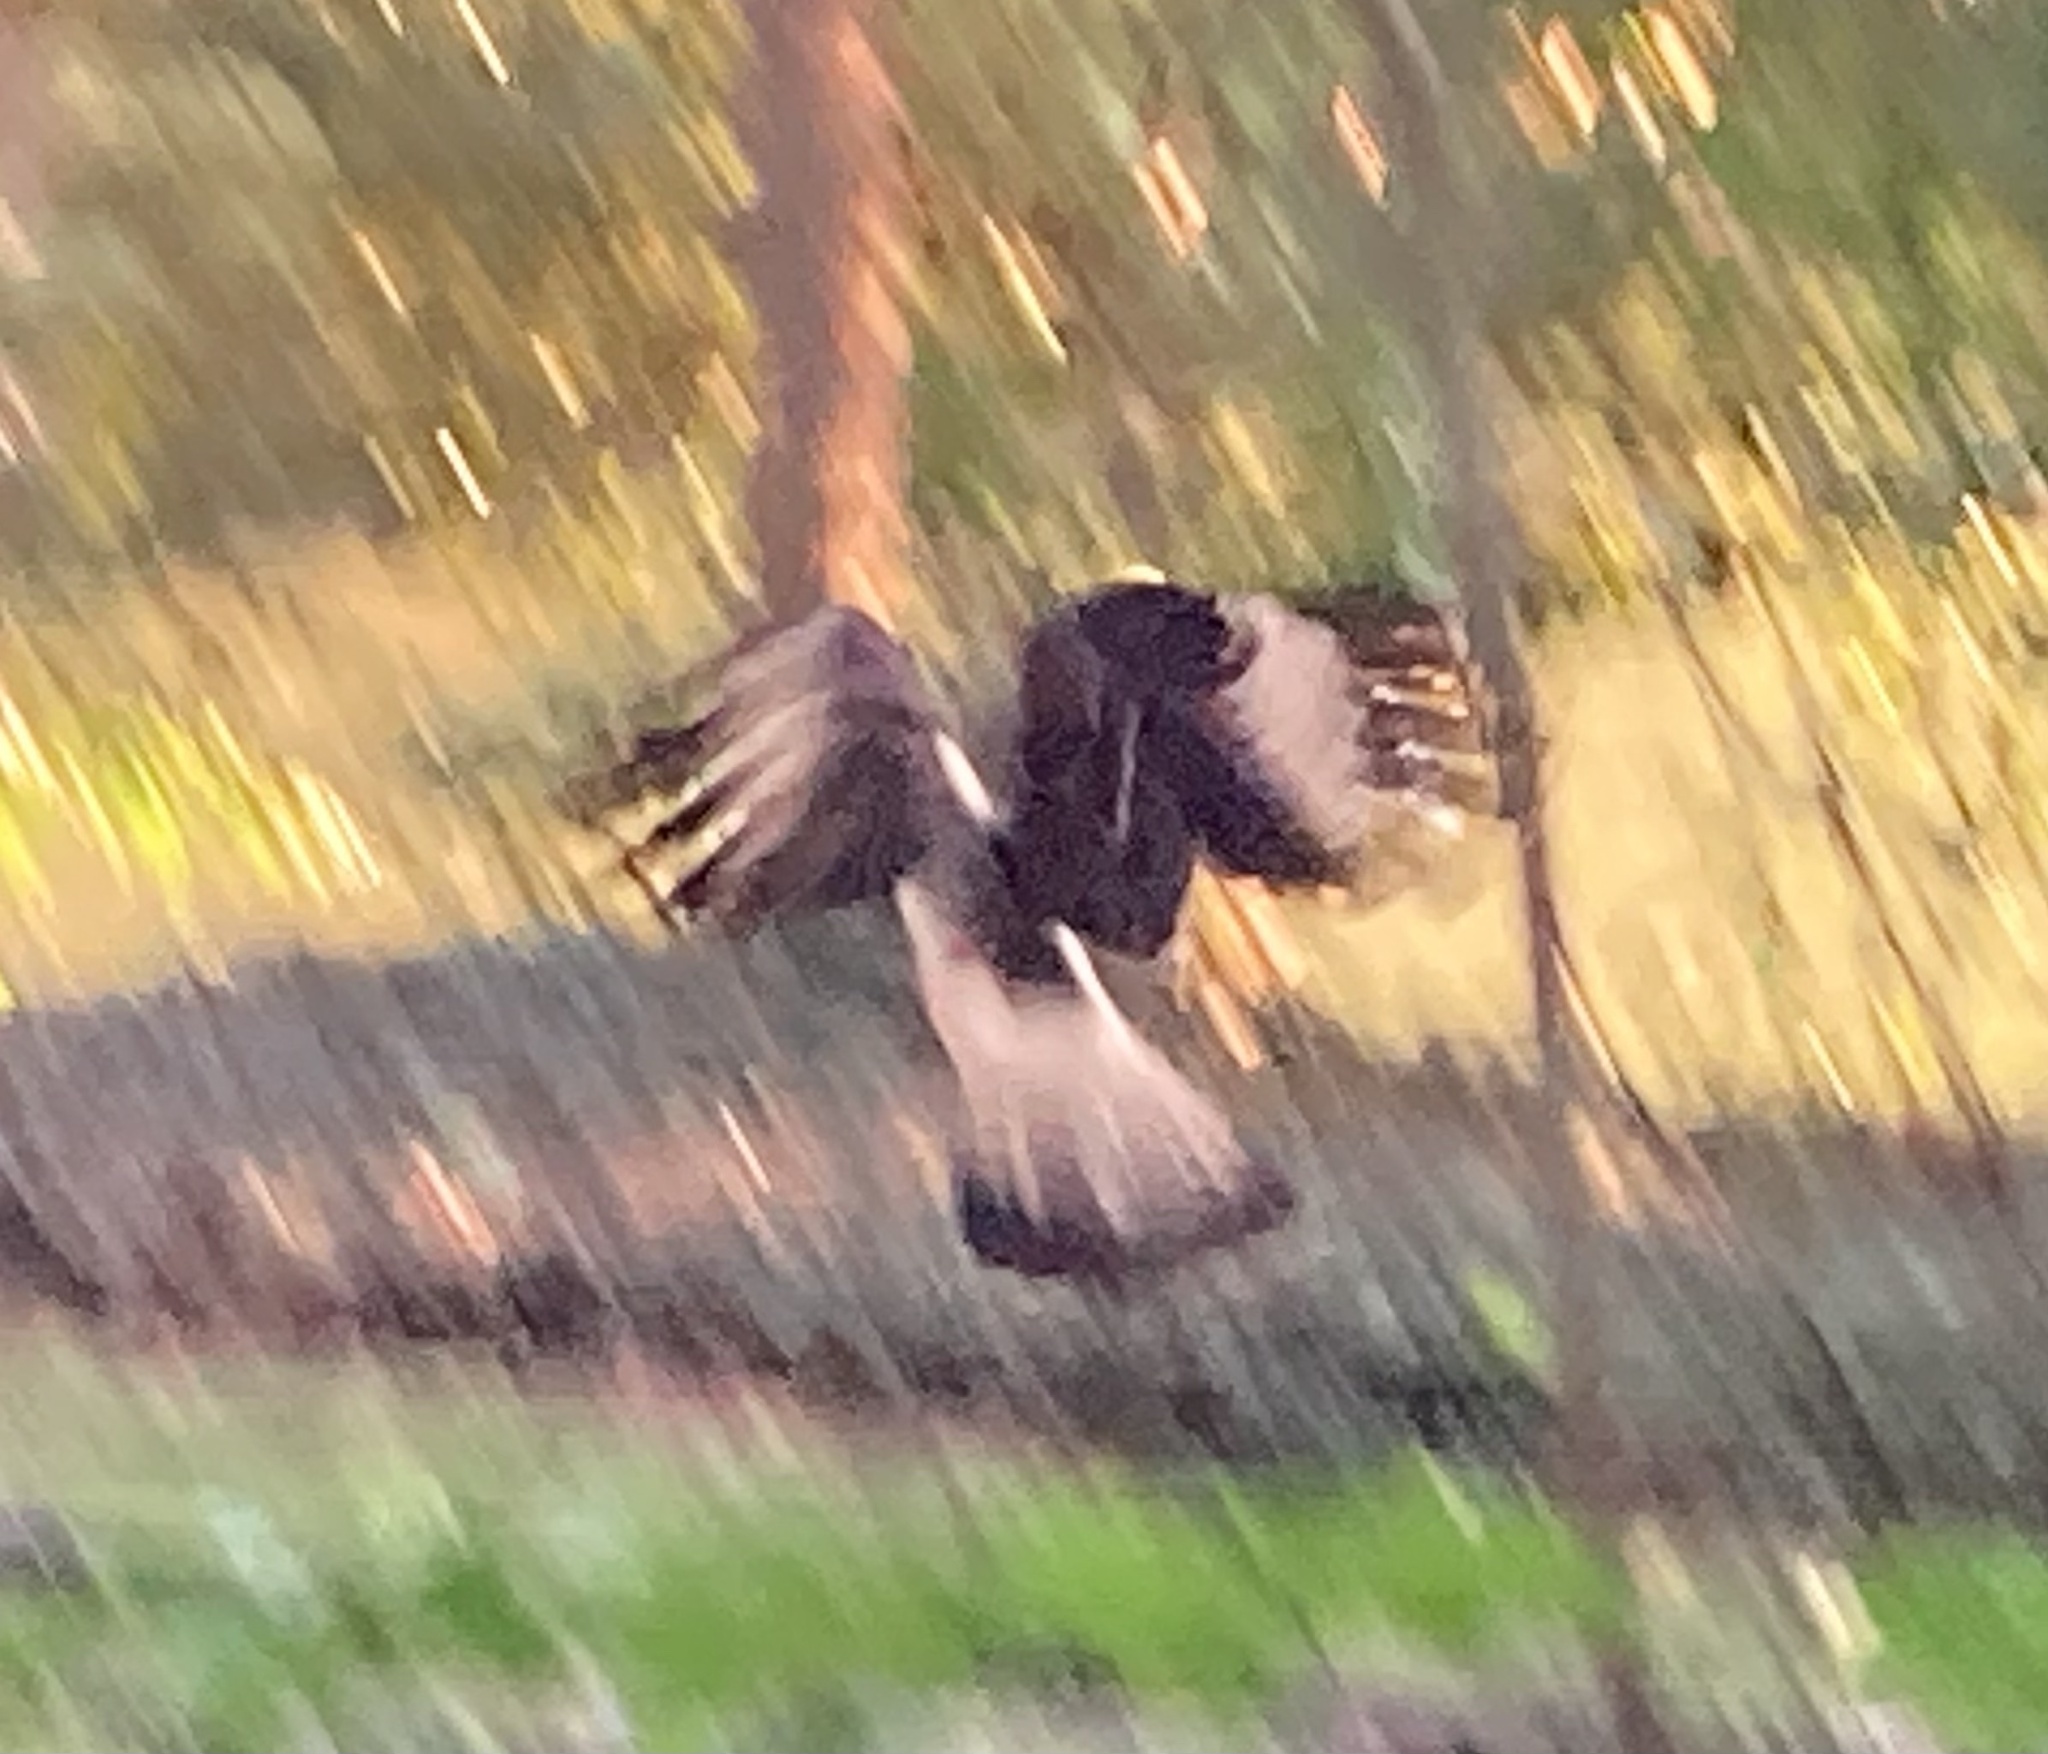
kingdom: Animalia
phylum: Chordata
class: Aves
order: Falconiformes
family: Falconidae
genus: Daptrius
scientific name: Daptrius
